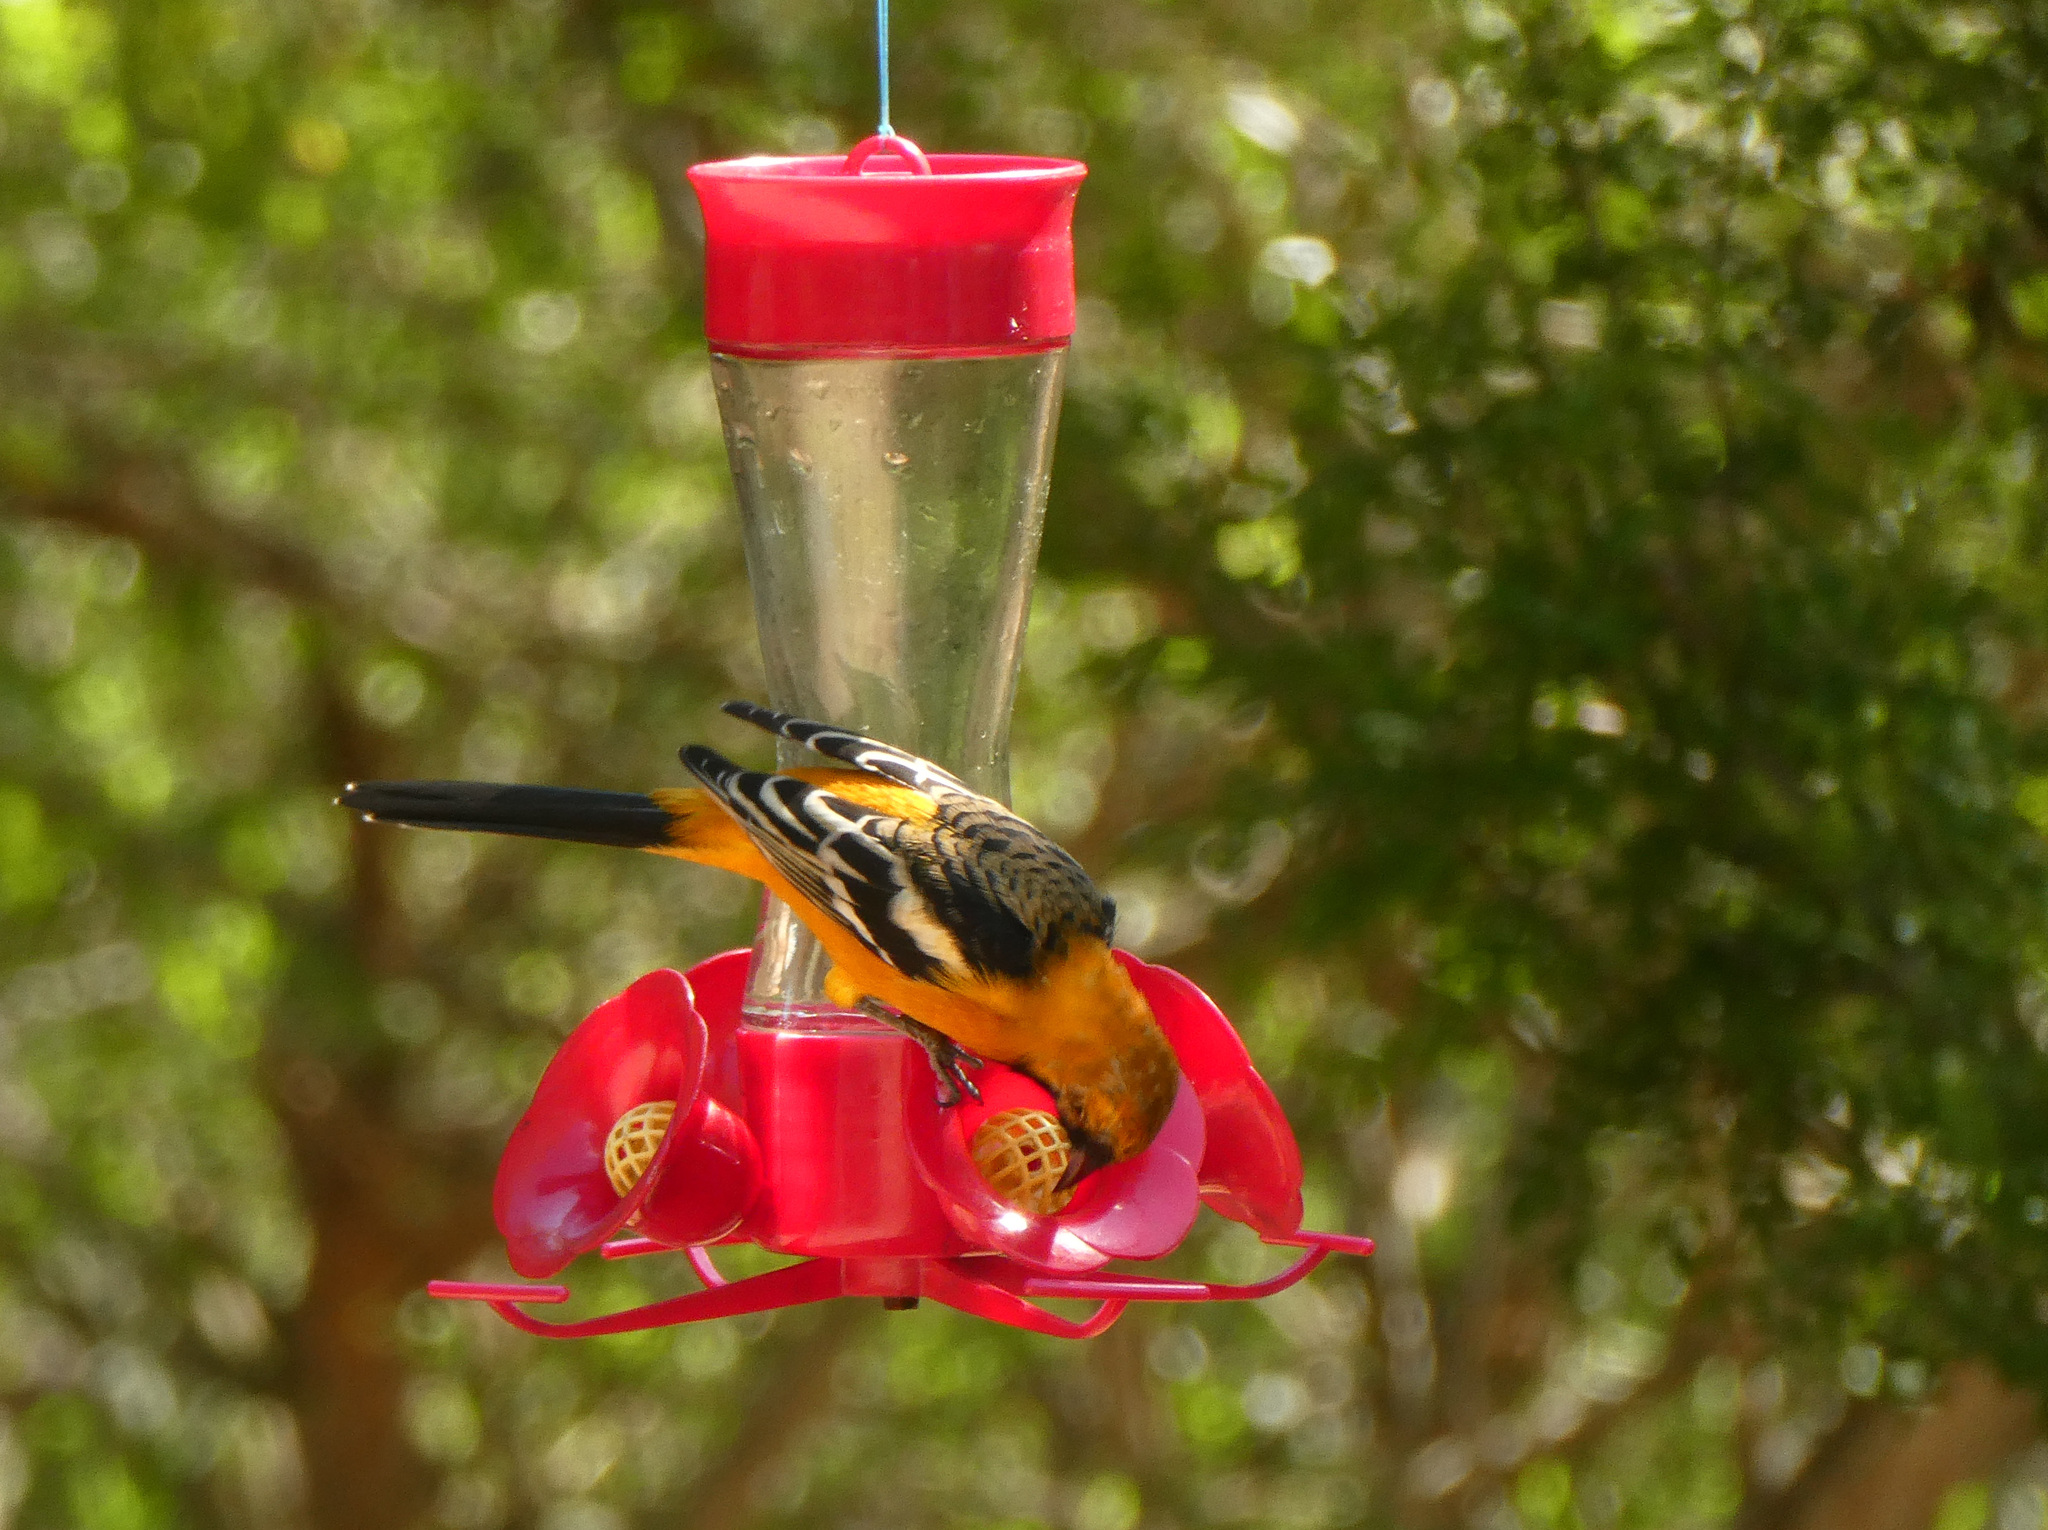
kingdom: Animalia
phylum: Chordata
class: Aves
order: Passeriformes
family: Icteridae
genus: Icterus
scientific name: Icterus cucullatus
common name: Hooded oriole
